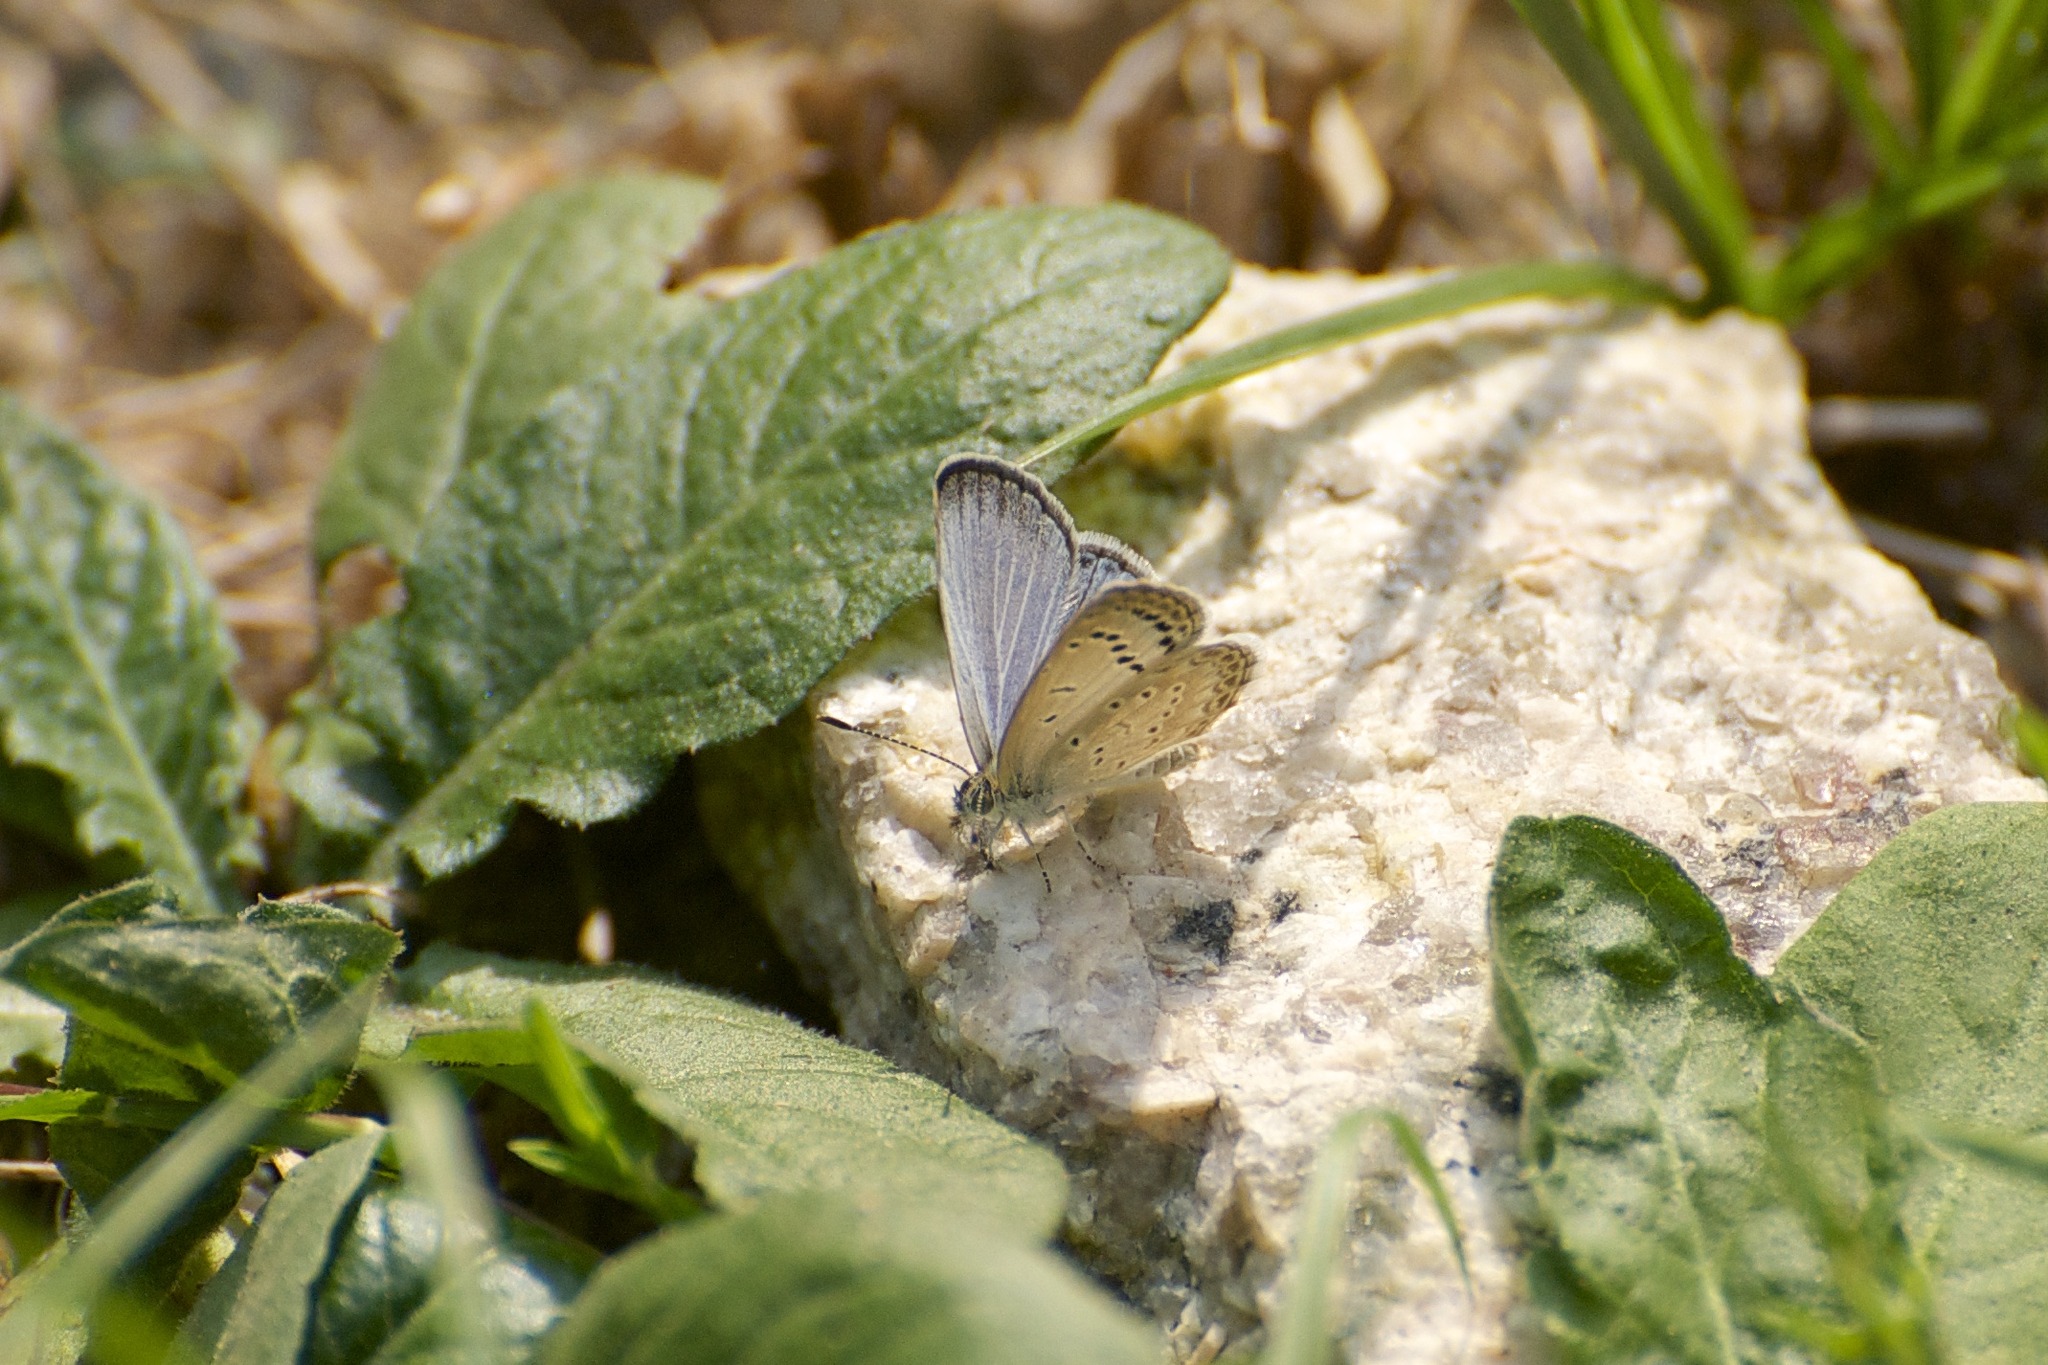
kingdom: Animalia
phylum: Arthropoda
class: Insecta
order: Lepidoptera
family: Lycaenidae
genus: Pseudozizeeria
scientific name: Pseudozizeeria maha
